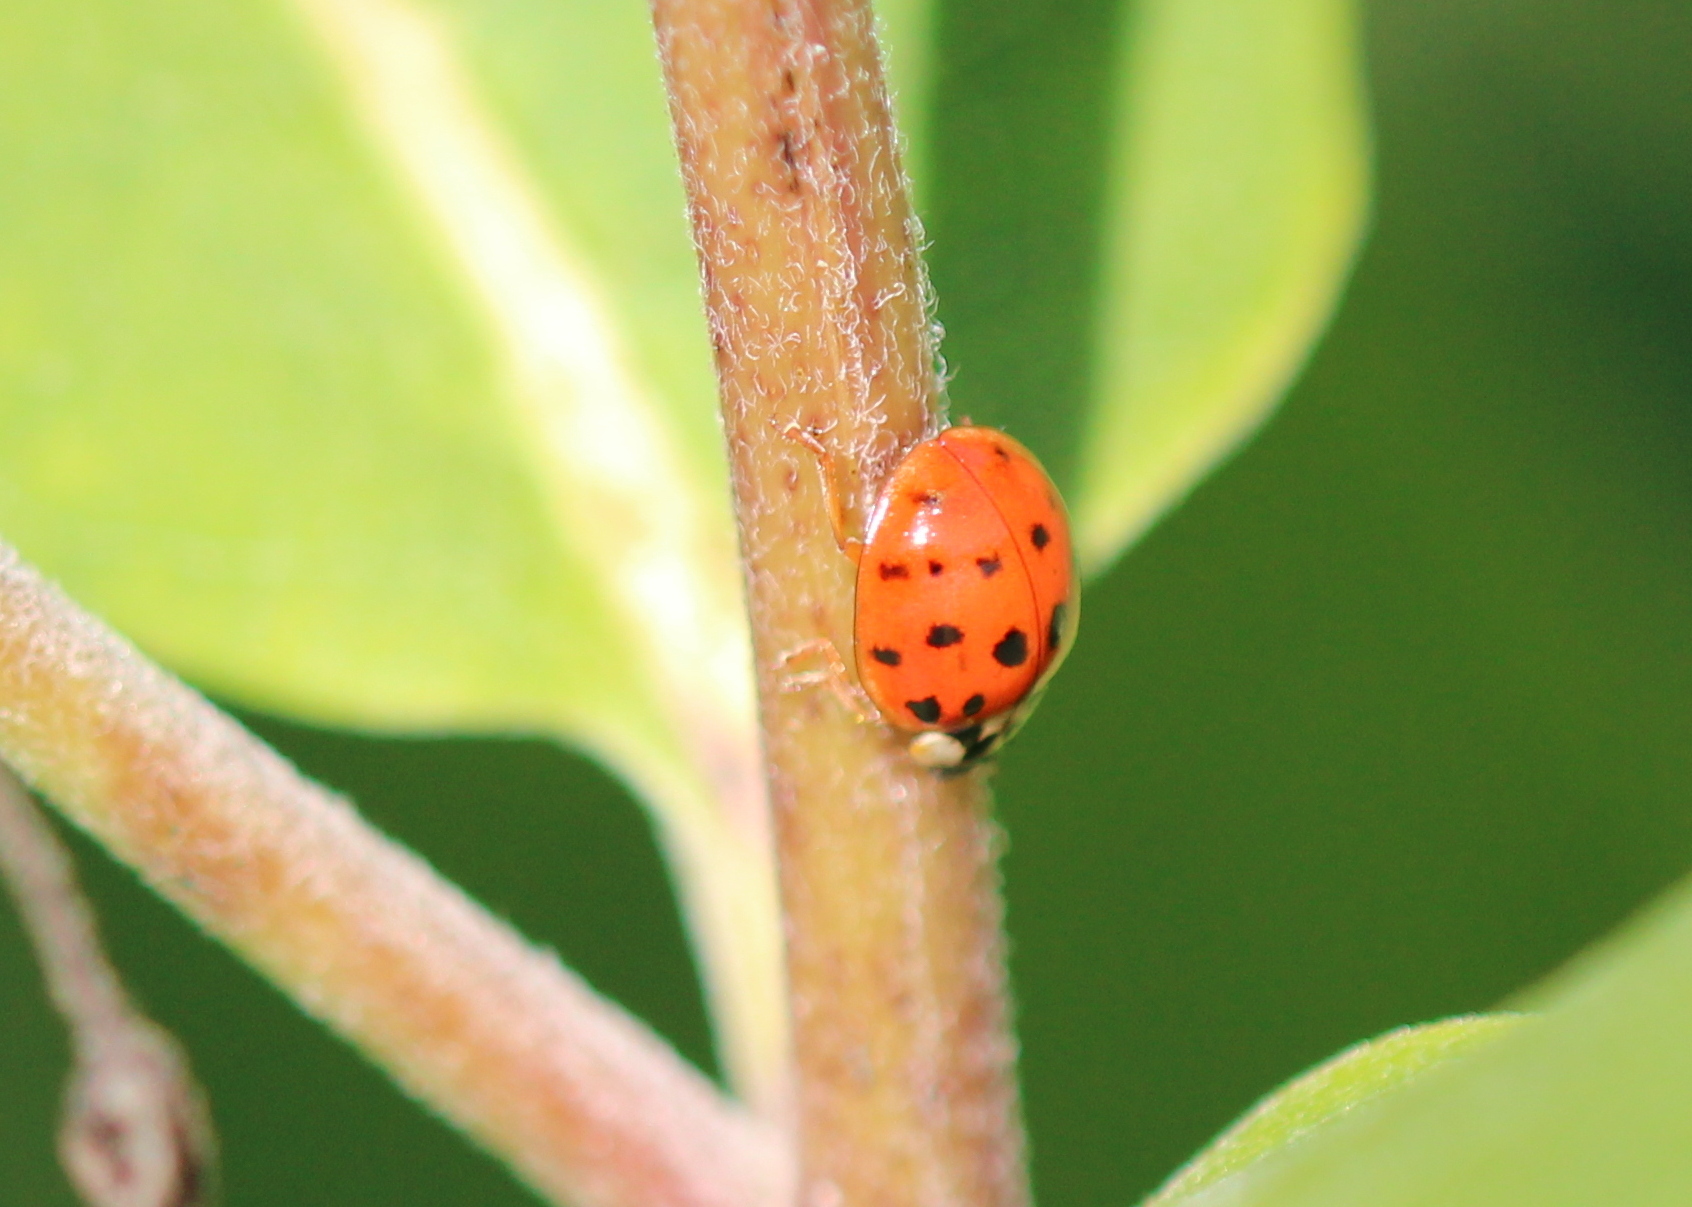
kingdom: Animalia
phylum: Arthropoda
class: Insecta
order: Coleoptera
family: Coccinellidae
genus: Harmonia
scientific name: Harmonia axyridis
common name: Harlequin ladybird
